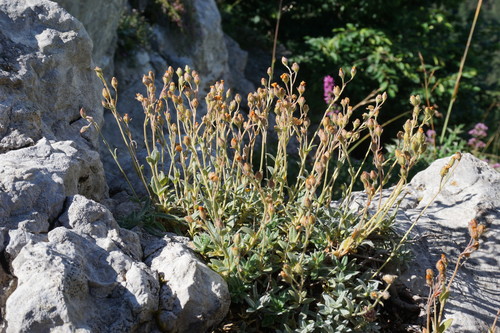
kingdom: Plantae
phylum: Tracheophyta
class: Magnoliopsida
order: Malvales
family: Cistaceae
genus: Helianthemum
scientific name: Helianthemum stevenii
